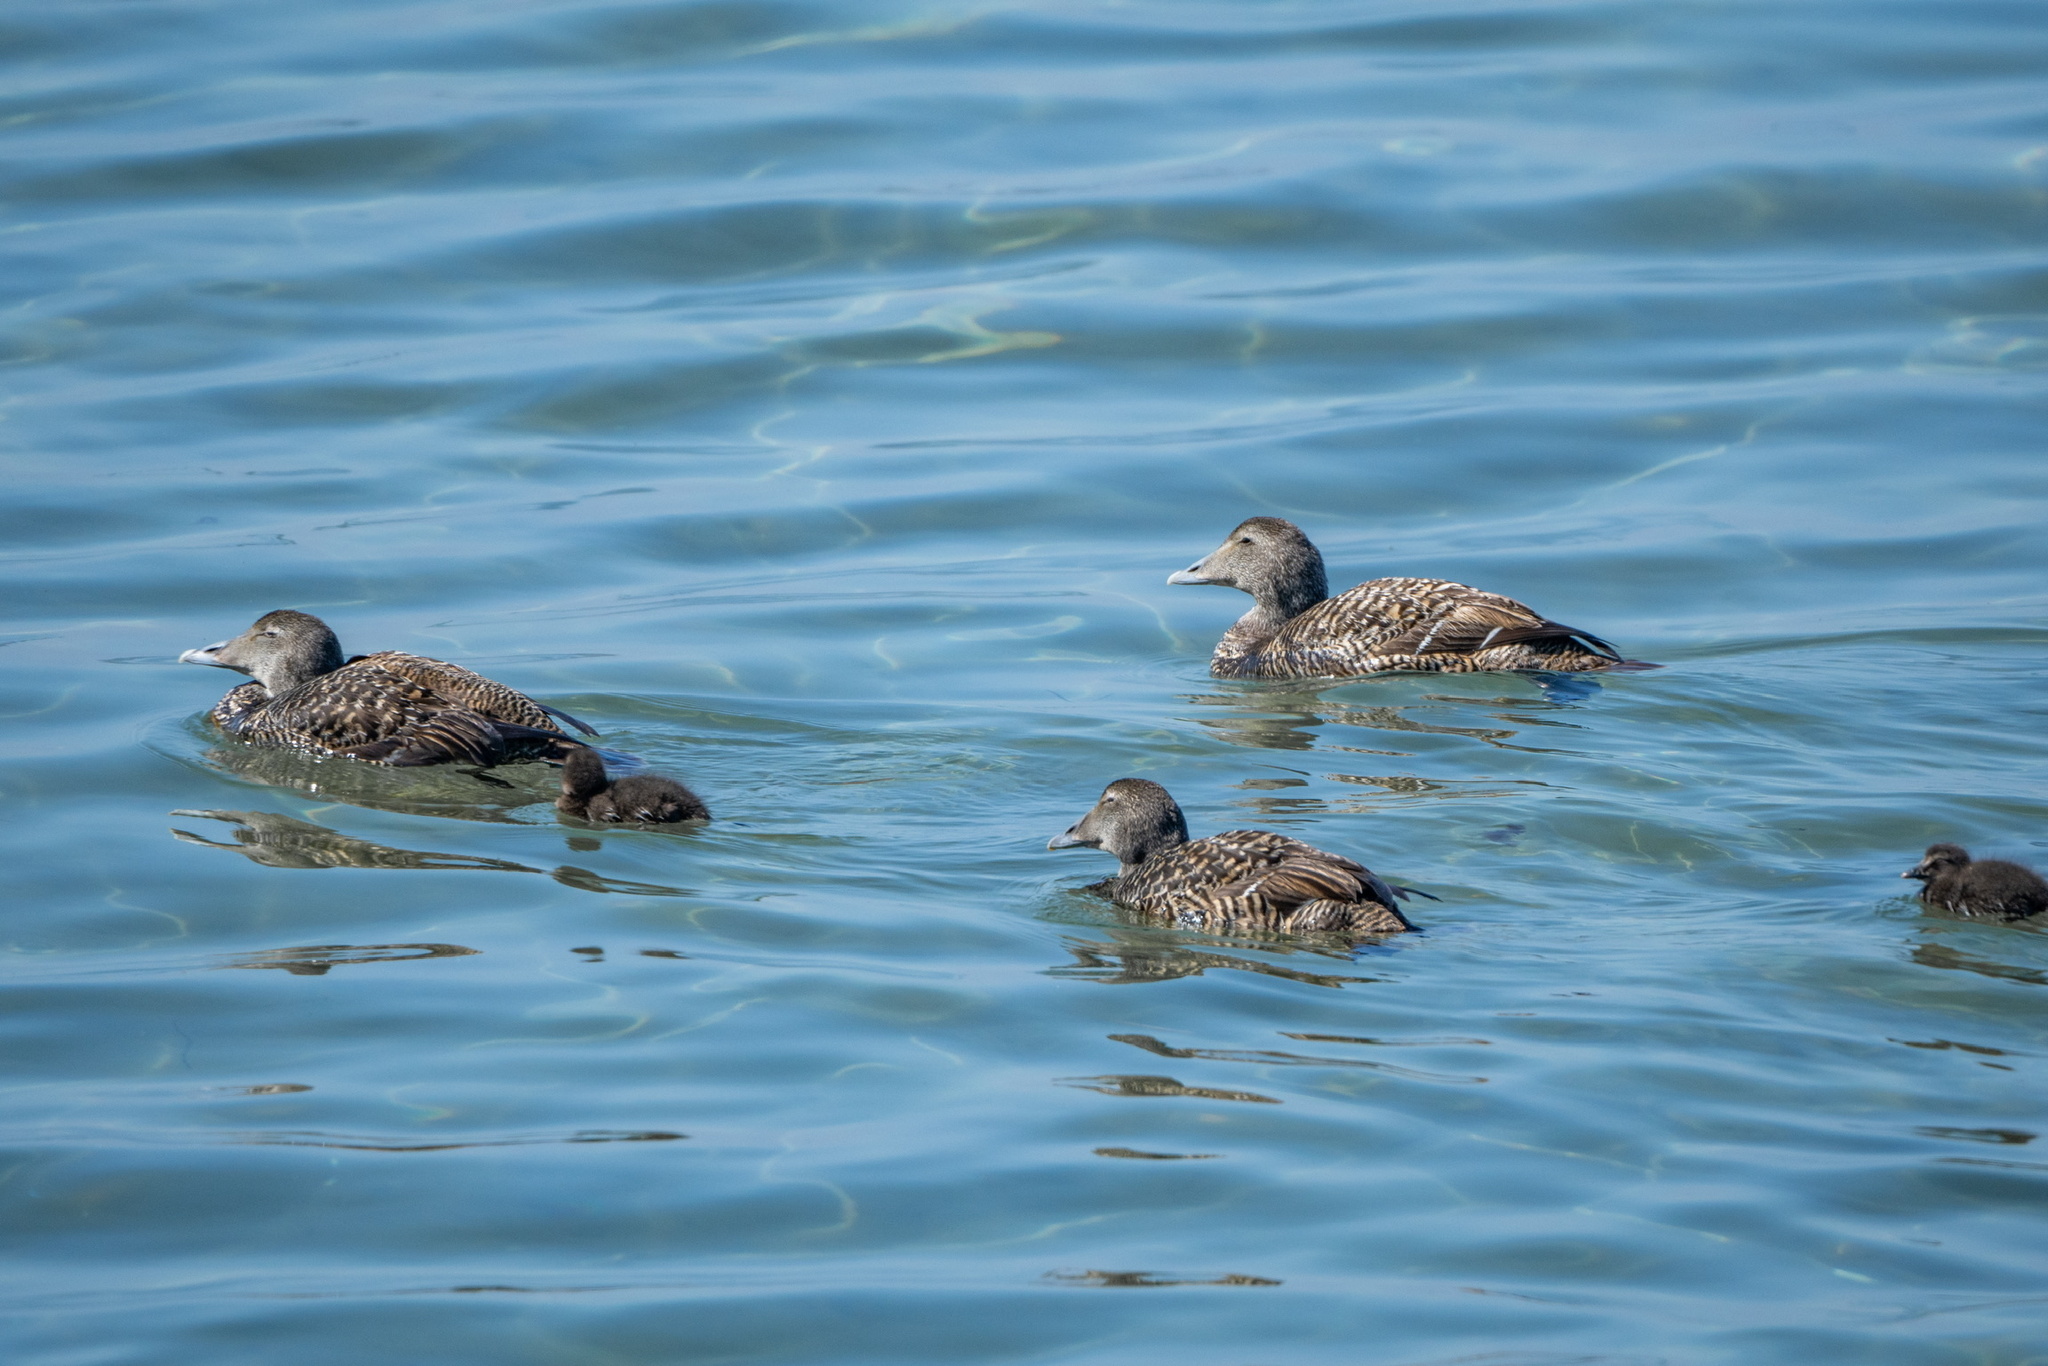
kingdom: Animalia
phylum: Chordata
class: Aves
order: Anseriformes
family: Anatidae
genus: Somateria
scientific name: Somateria mollissima
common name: Common eider
